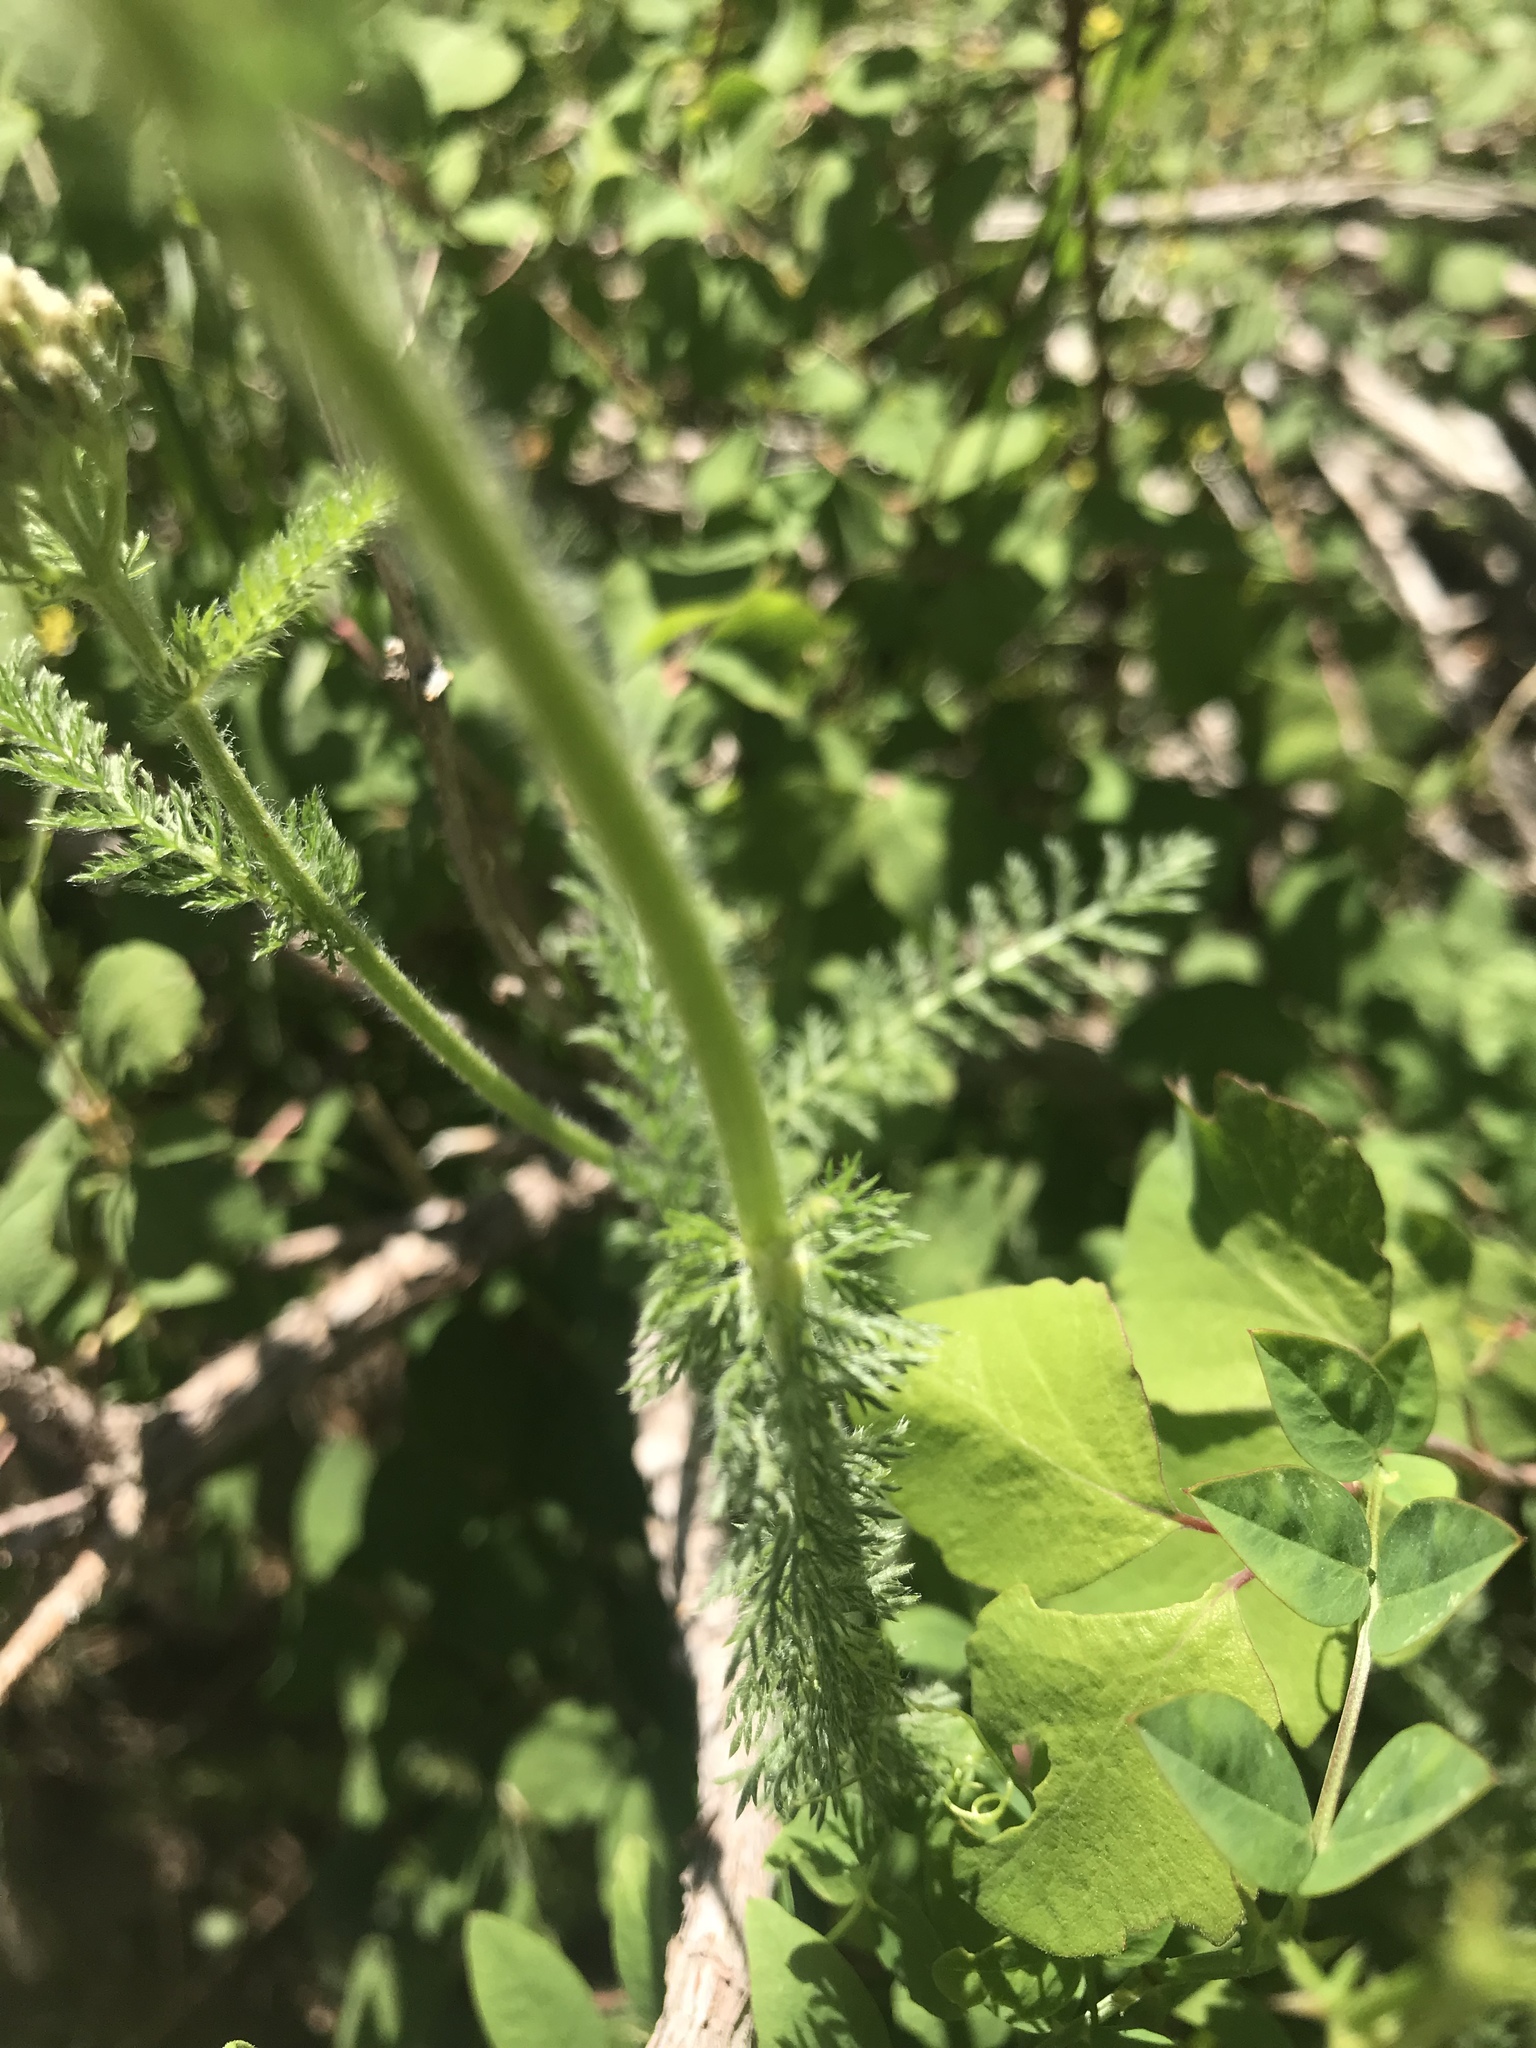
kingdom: Plantae
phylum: Tracheophyta
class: Magnoliopsida
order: Asterales
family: Asteraceae
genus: Achillea
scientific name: Achillea millefolium
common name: Yarrow
